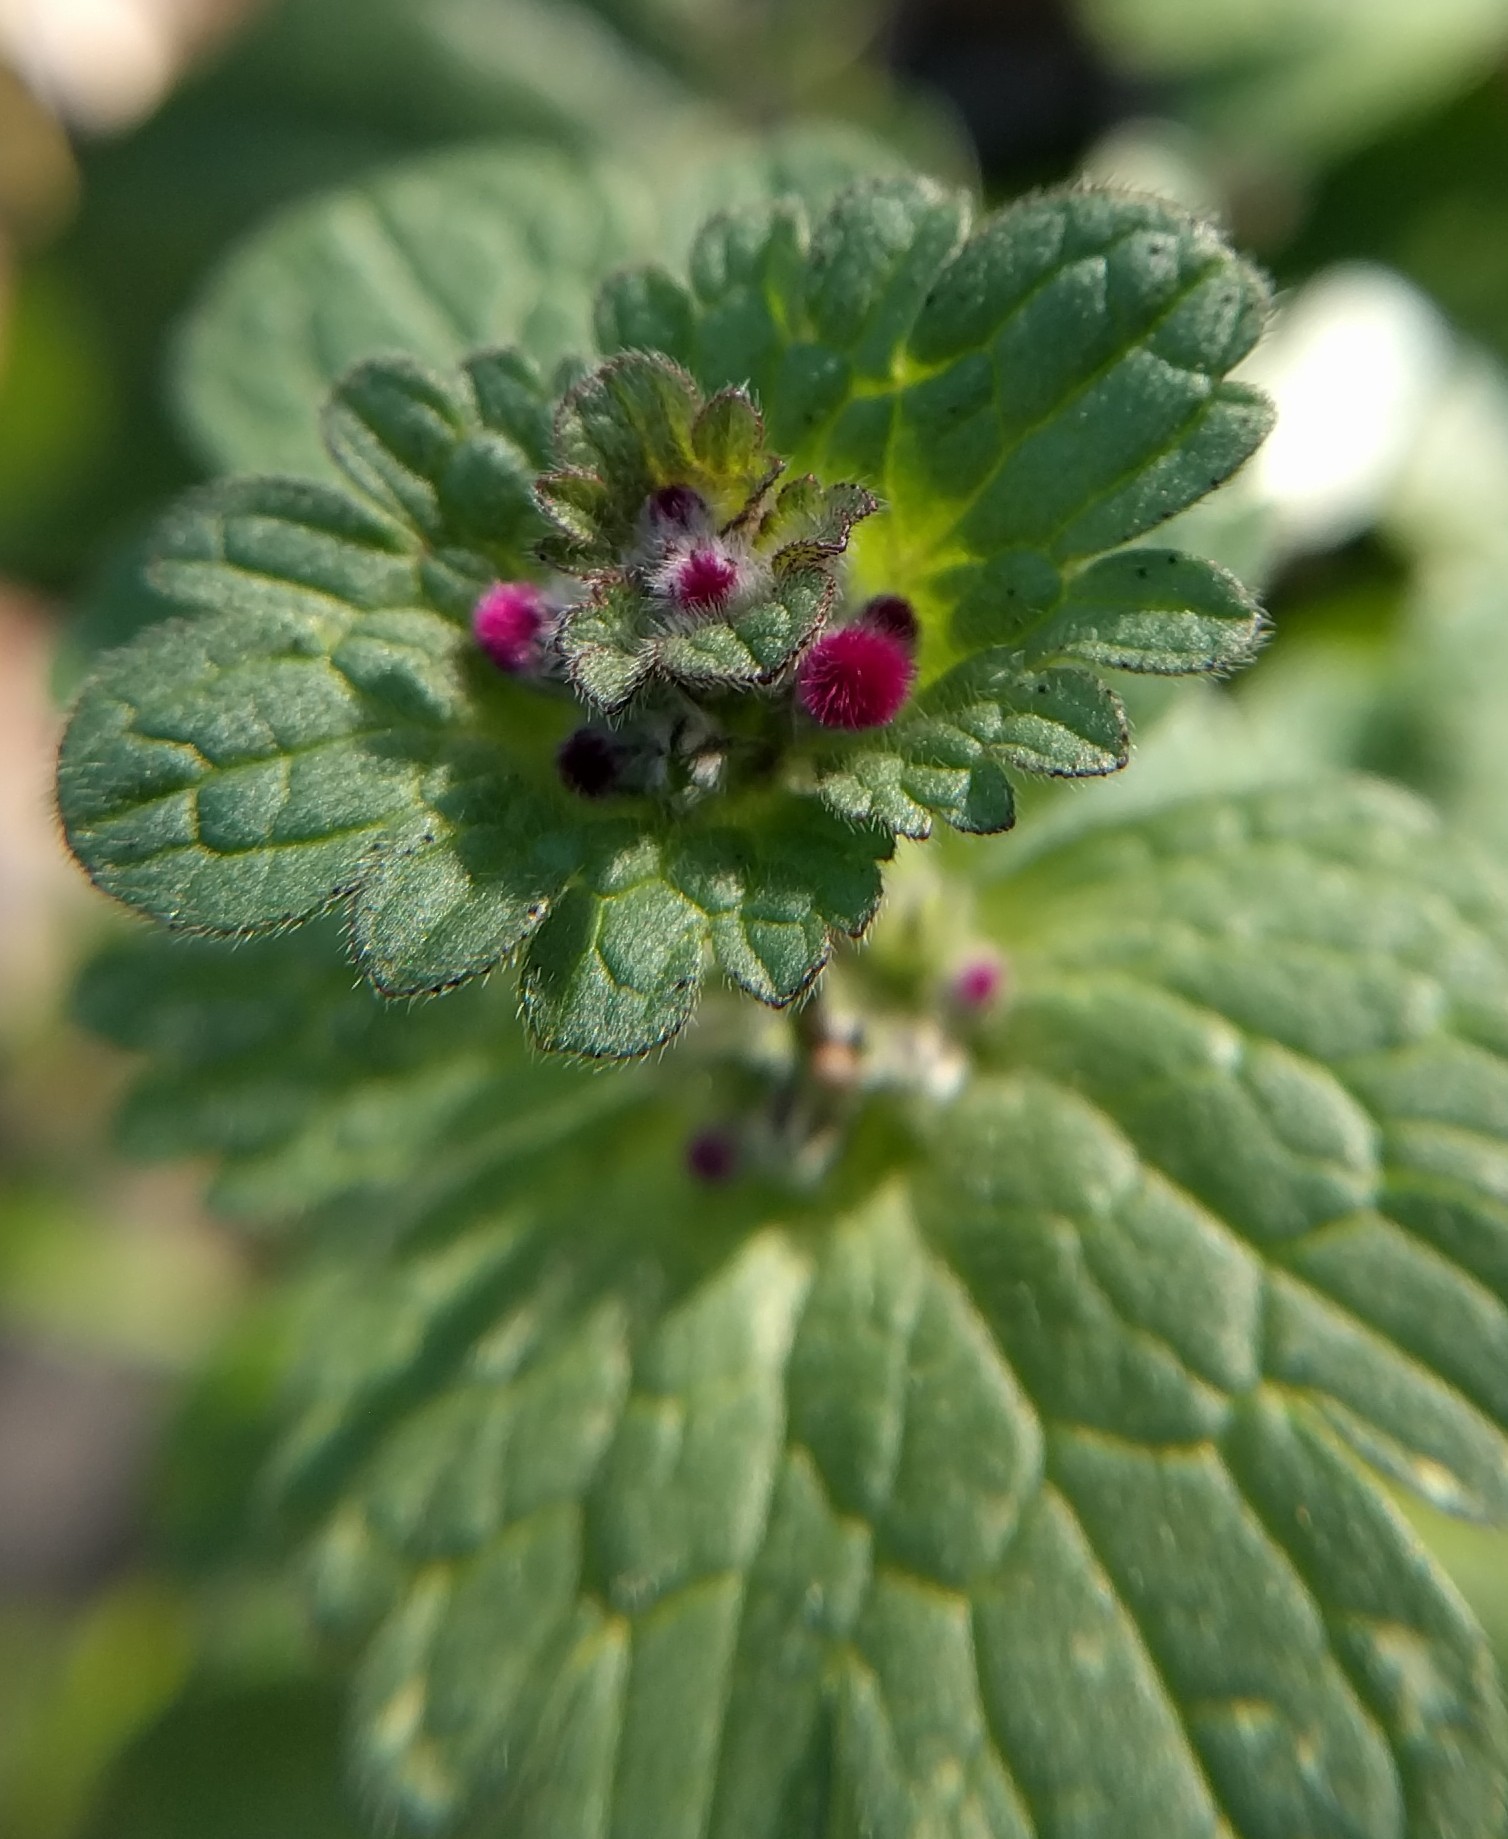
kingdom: Plantae
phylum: Tracheophyta
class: Magnoliopsida
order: Lamiales
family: Lamiaceae
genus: Lamium
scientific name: Lamium amplexicaule
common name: Henbit dead-nettle
